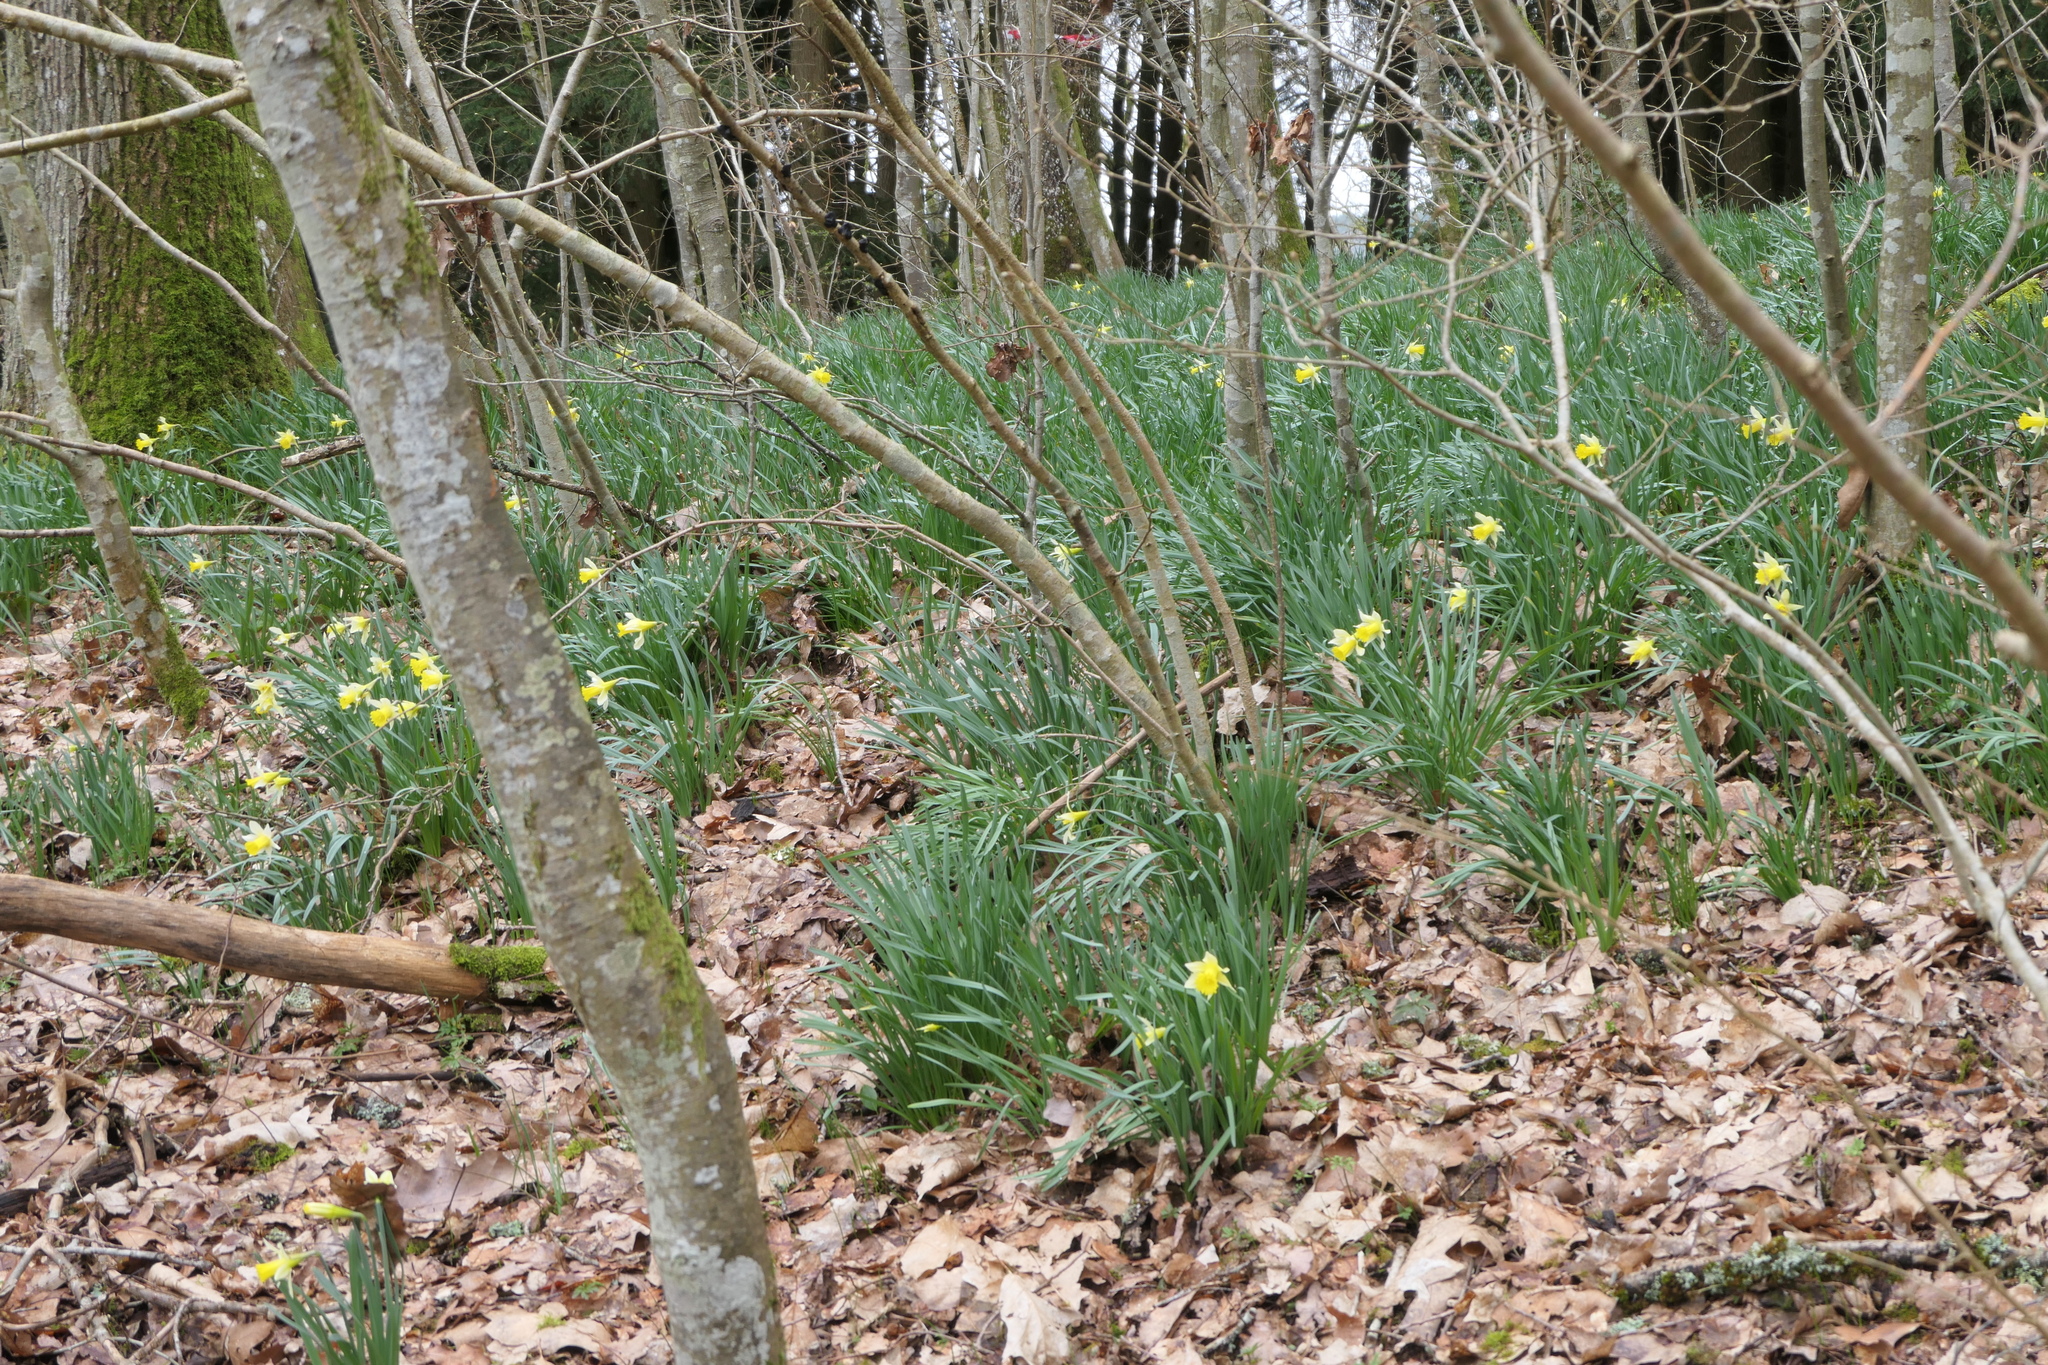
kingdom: Plantae
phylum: Tracheophyta
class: Liliopsida
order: Asparagales
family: Amaryllidaceae
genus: Narcissus
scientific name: Narcissus pseudonarcissus
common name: Daffodil
